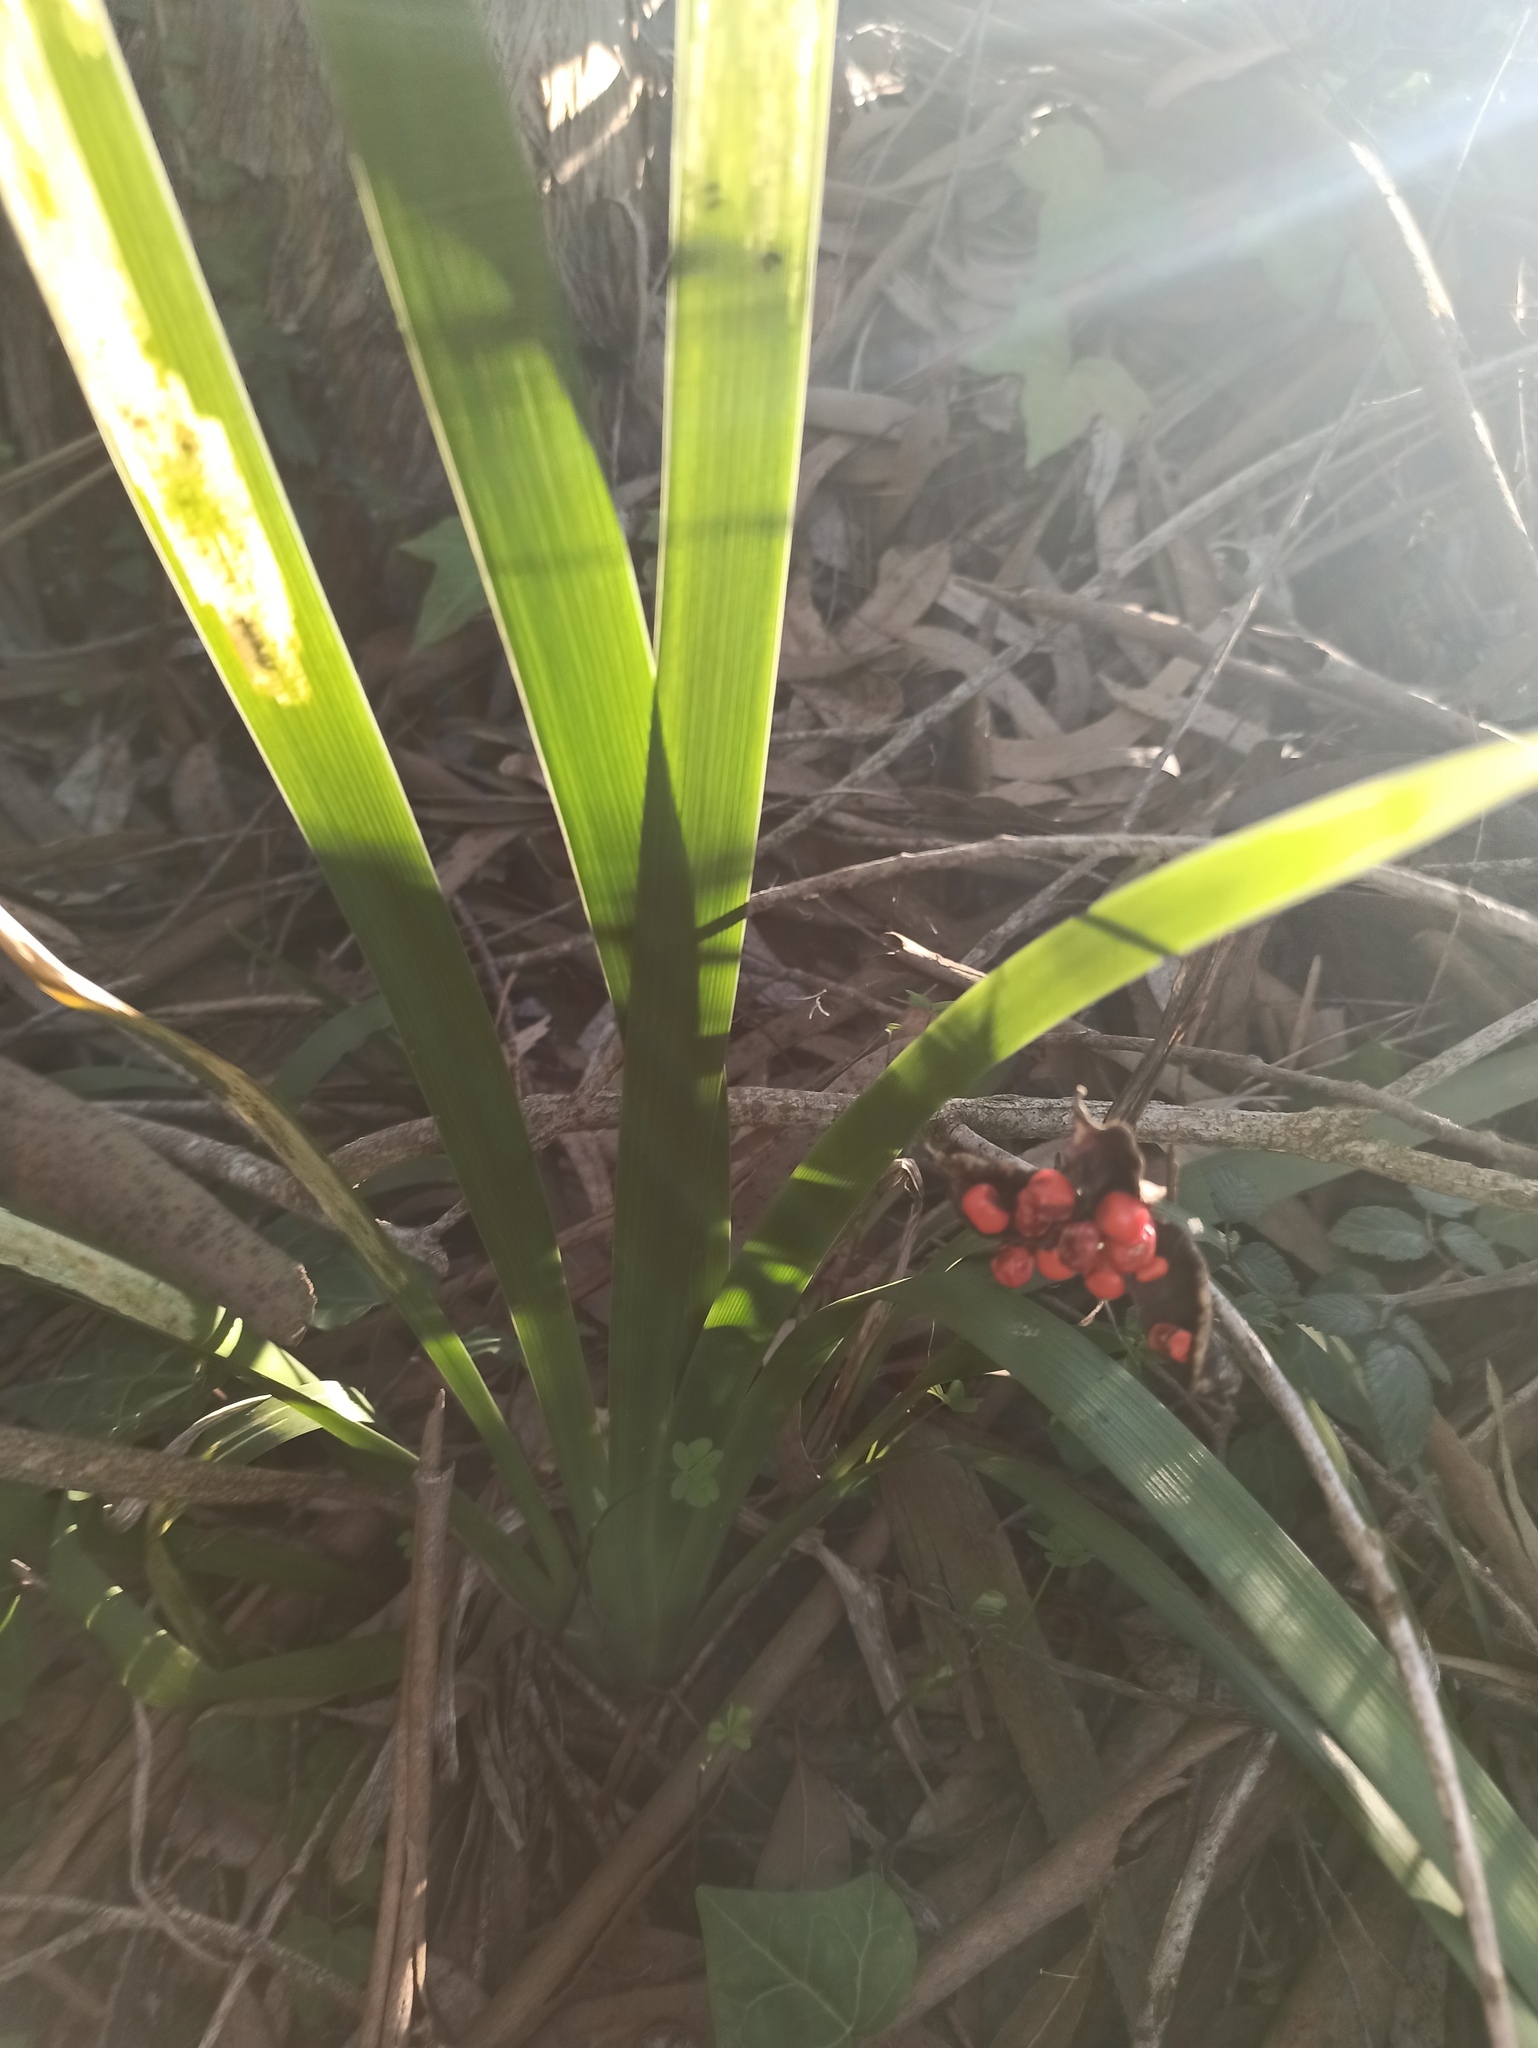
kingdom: Plantae
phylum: Tracheophyta
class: Liliopsida
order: Asparagales
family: Iridaceae
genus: Iris
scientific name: Iris foetidissima
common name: Stinking iris
